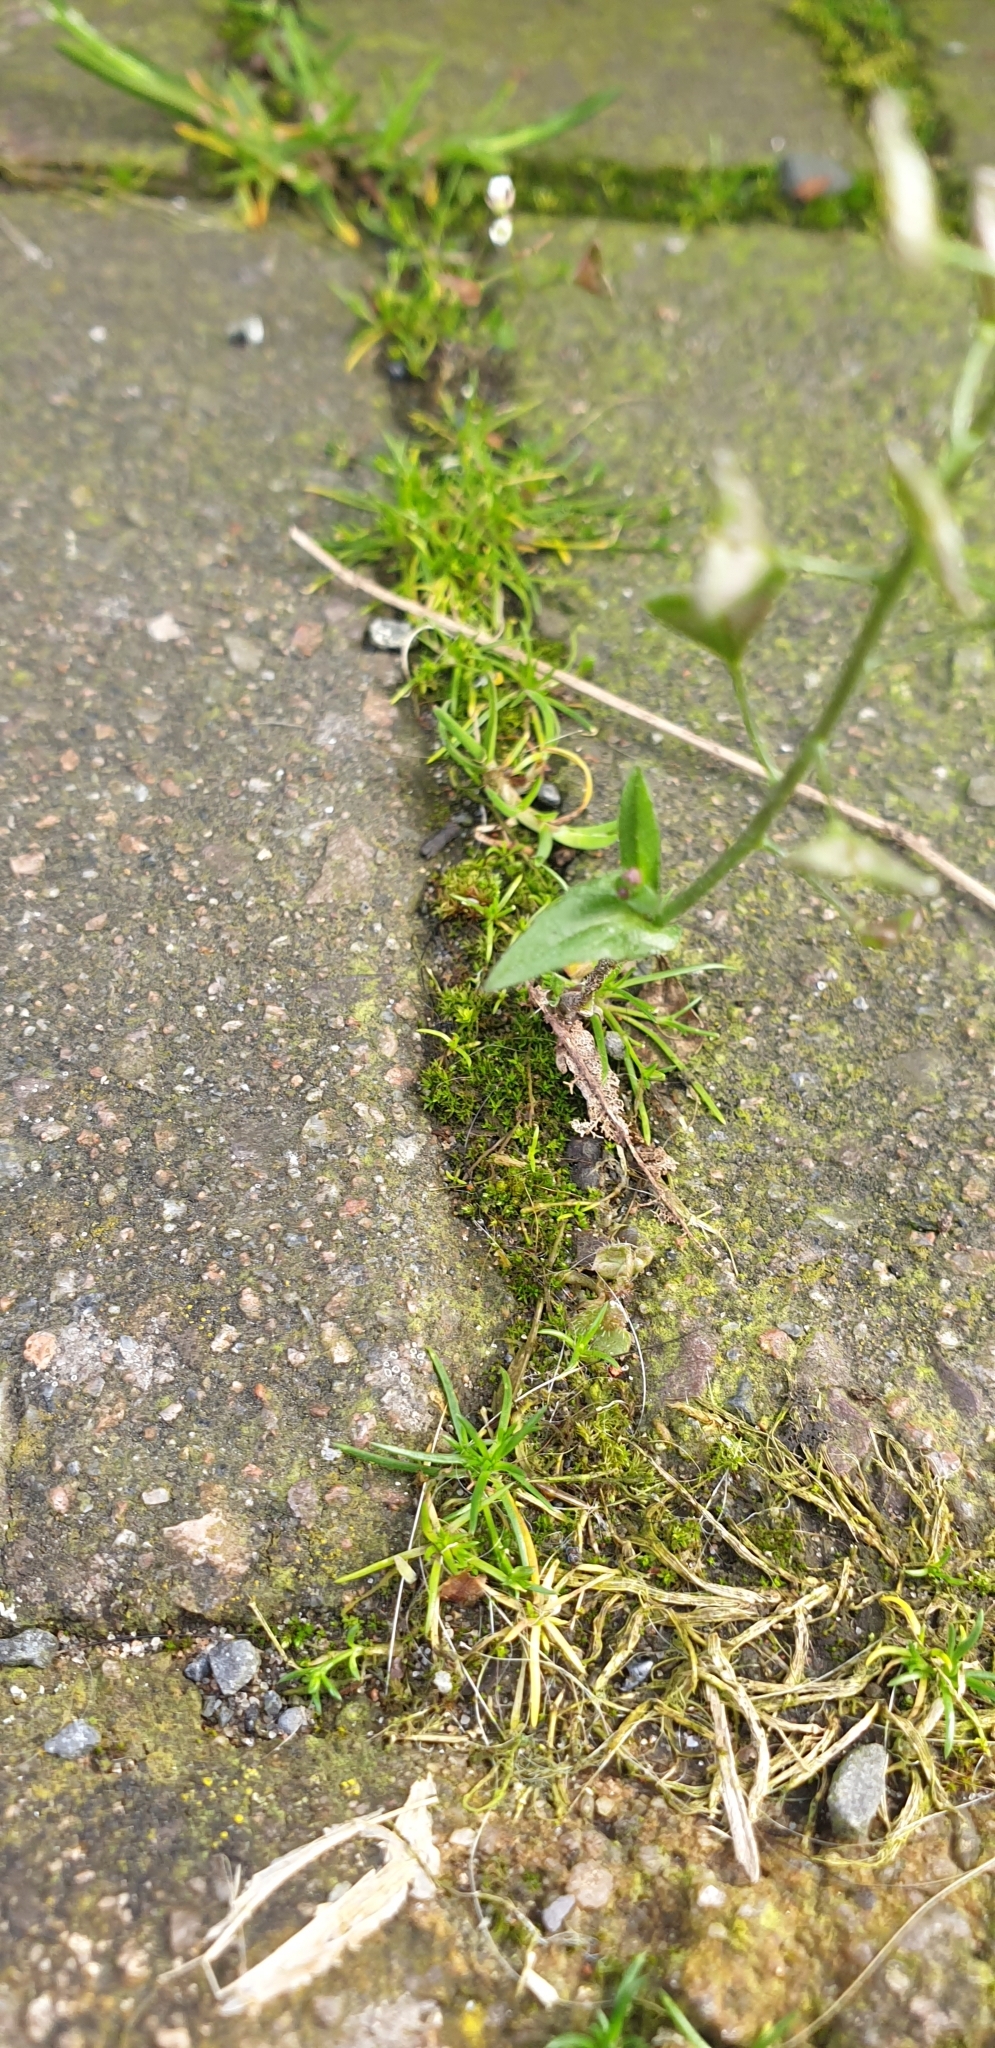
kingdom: Plantae
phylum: Tracheophyta
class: Magnoliopsida
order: Brassicales
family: Brassicaceae
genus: Capsella
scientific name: Capsella bursa-pastoris
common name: Shepherd's purse
